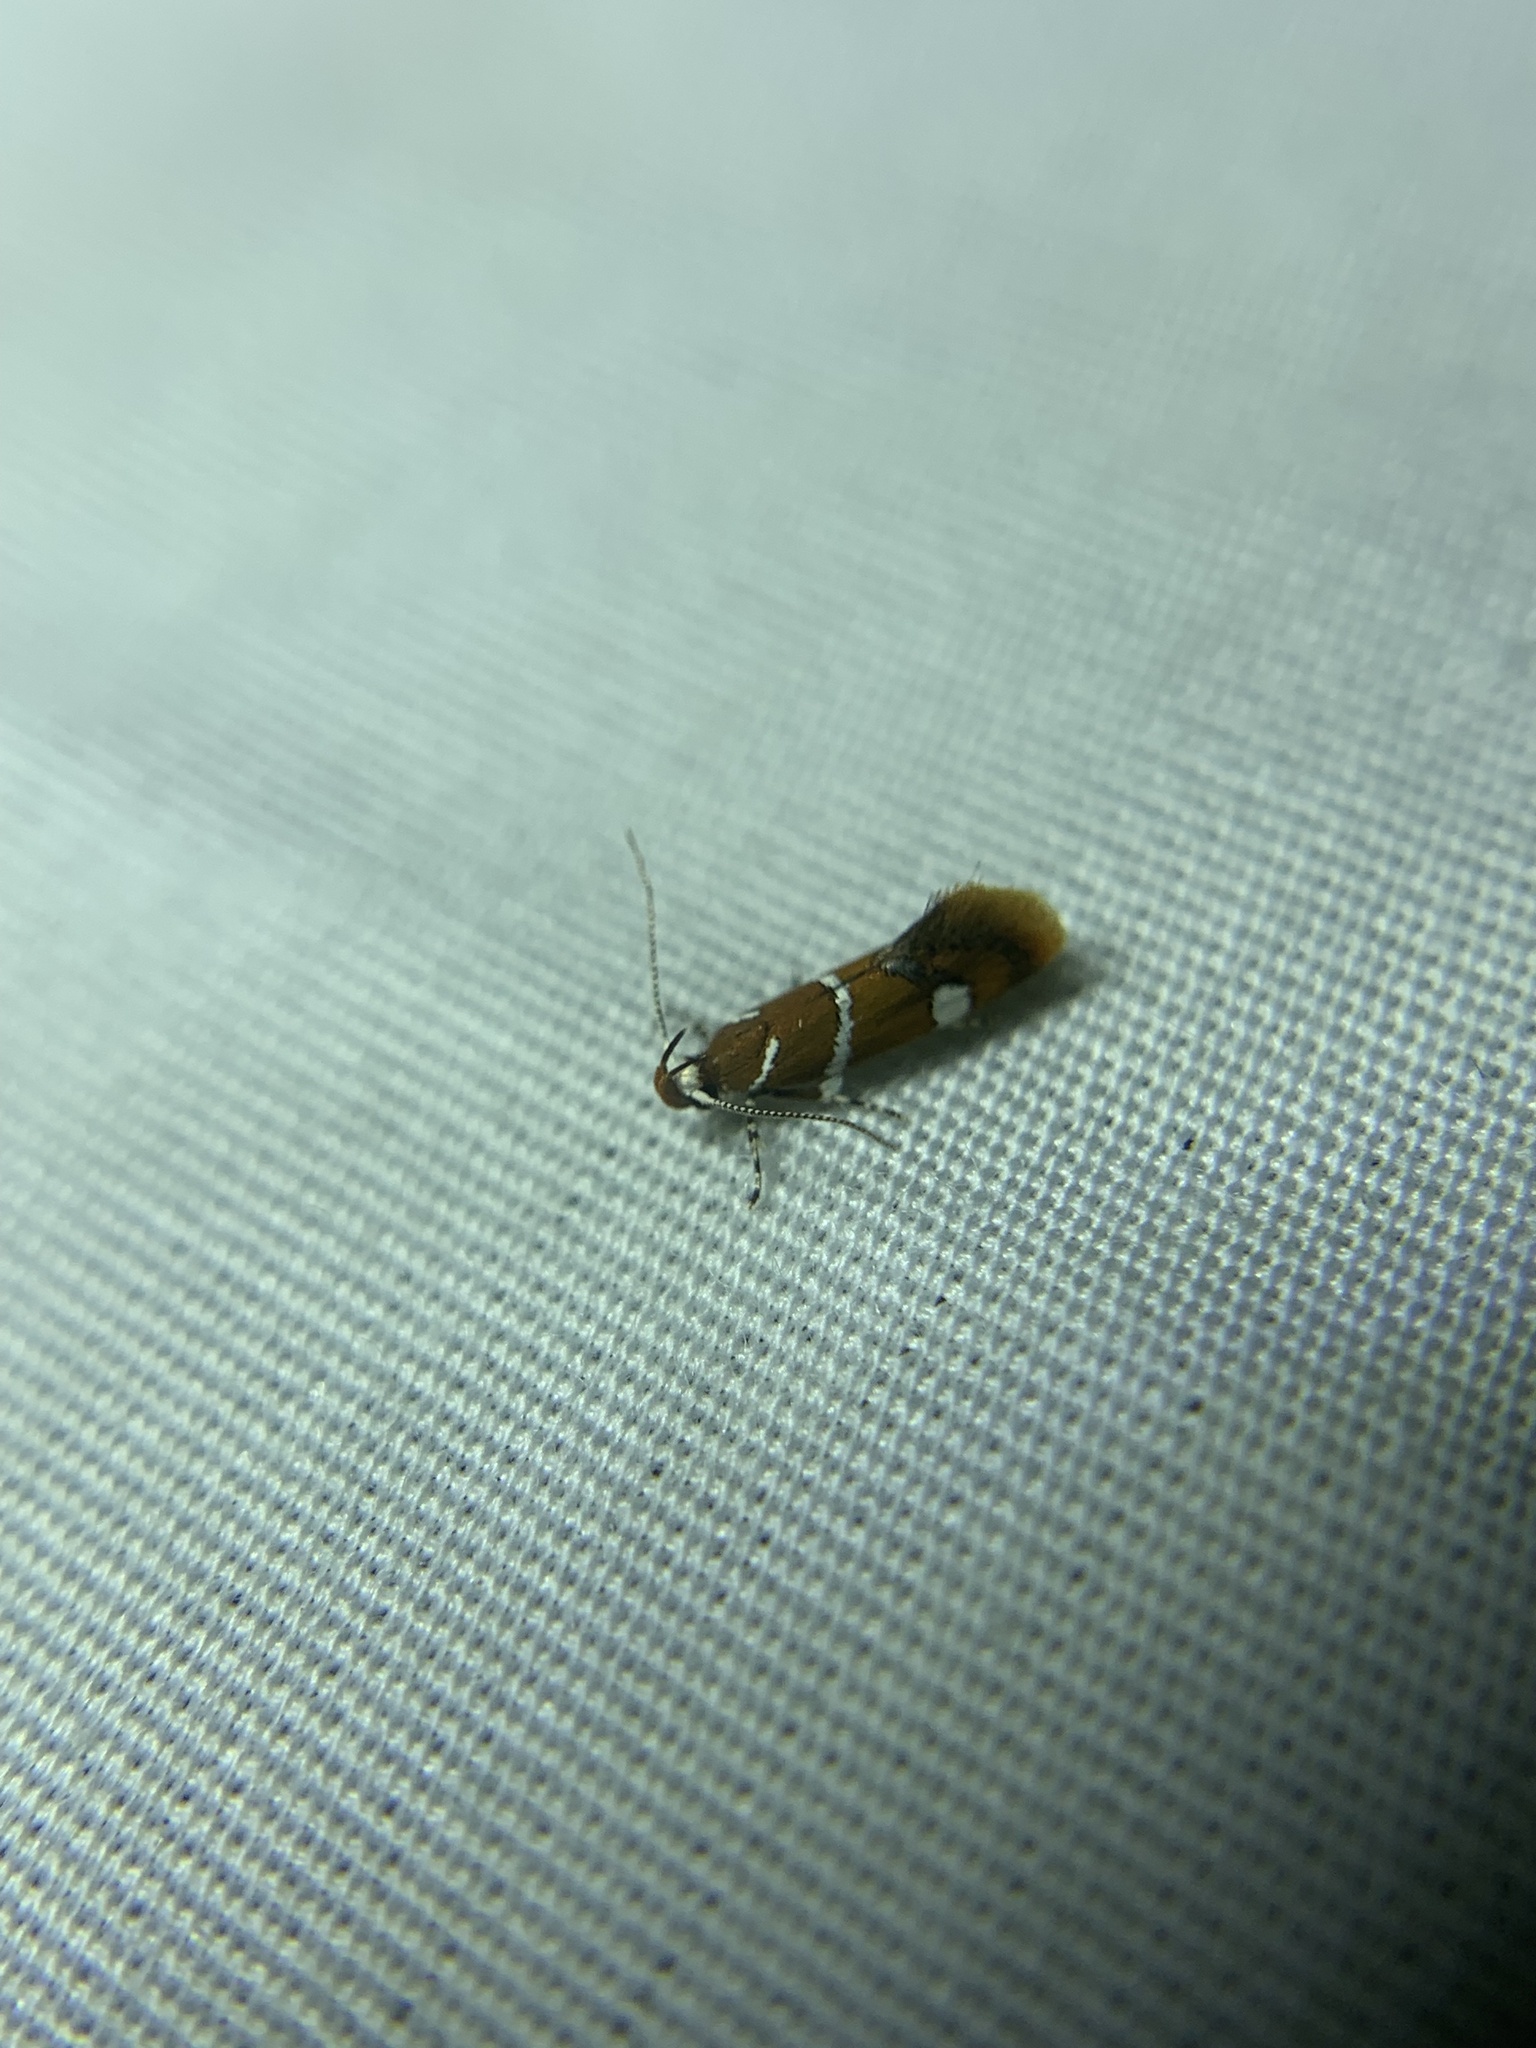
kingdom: Animalia
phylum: Arthropoda
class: Insecta
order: Lepidoptera
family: Oecophoridae
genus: Promalactis
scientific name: Promalactis suzukiella
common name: Moth
